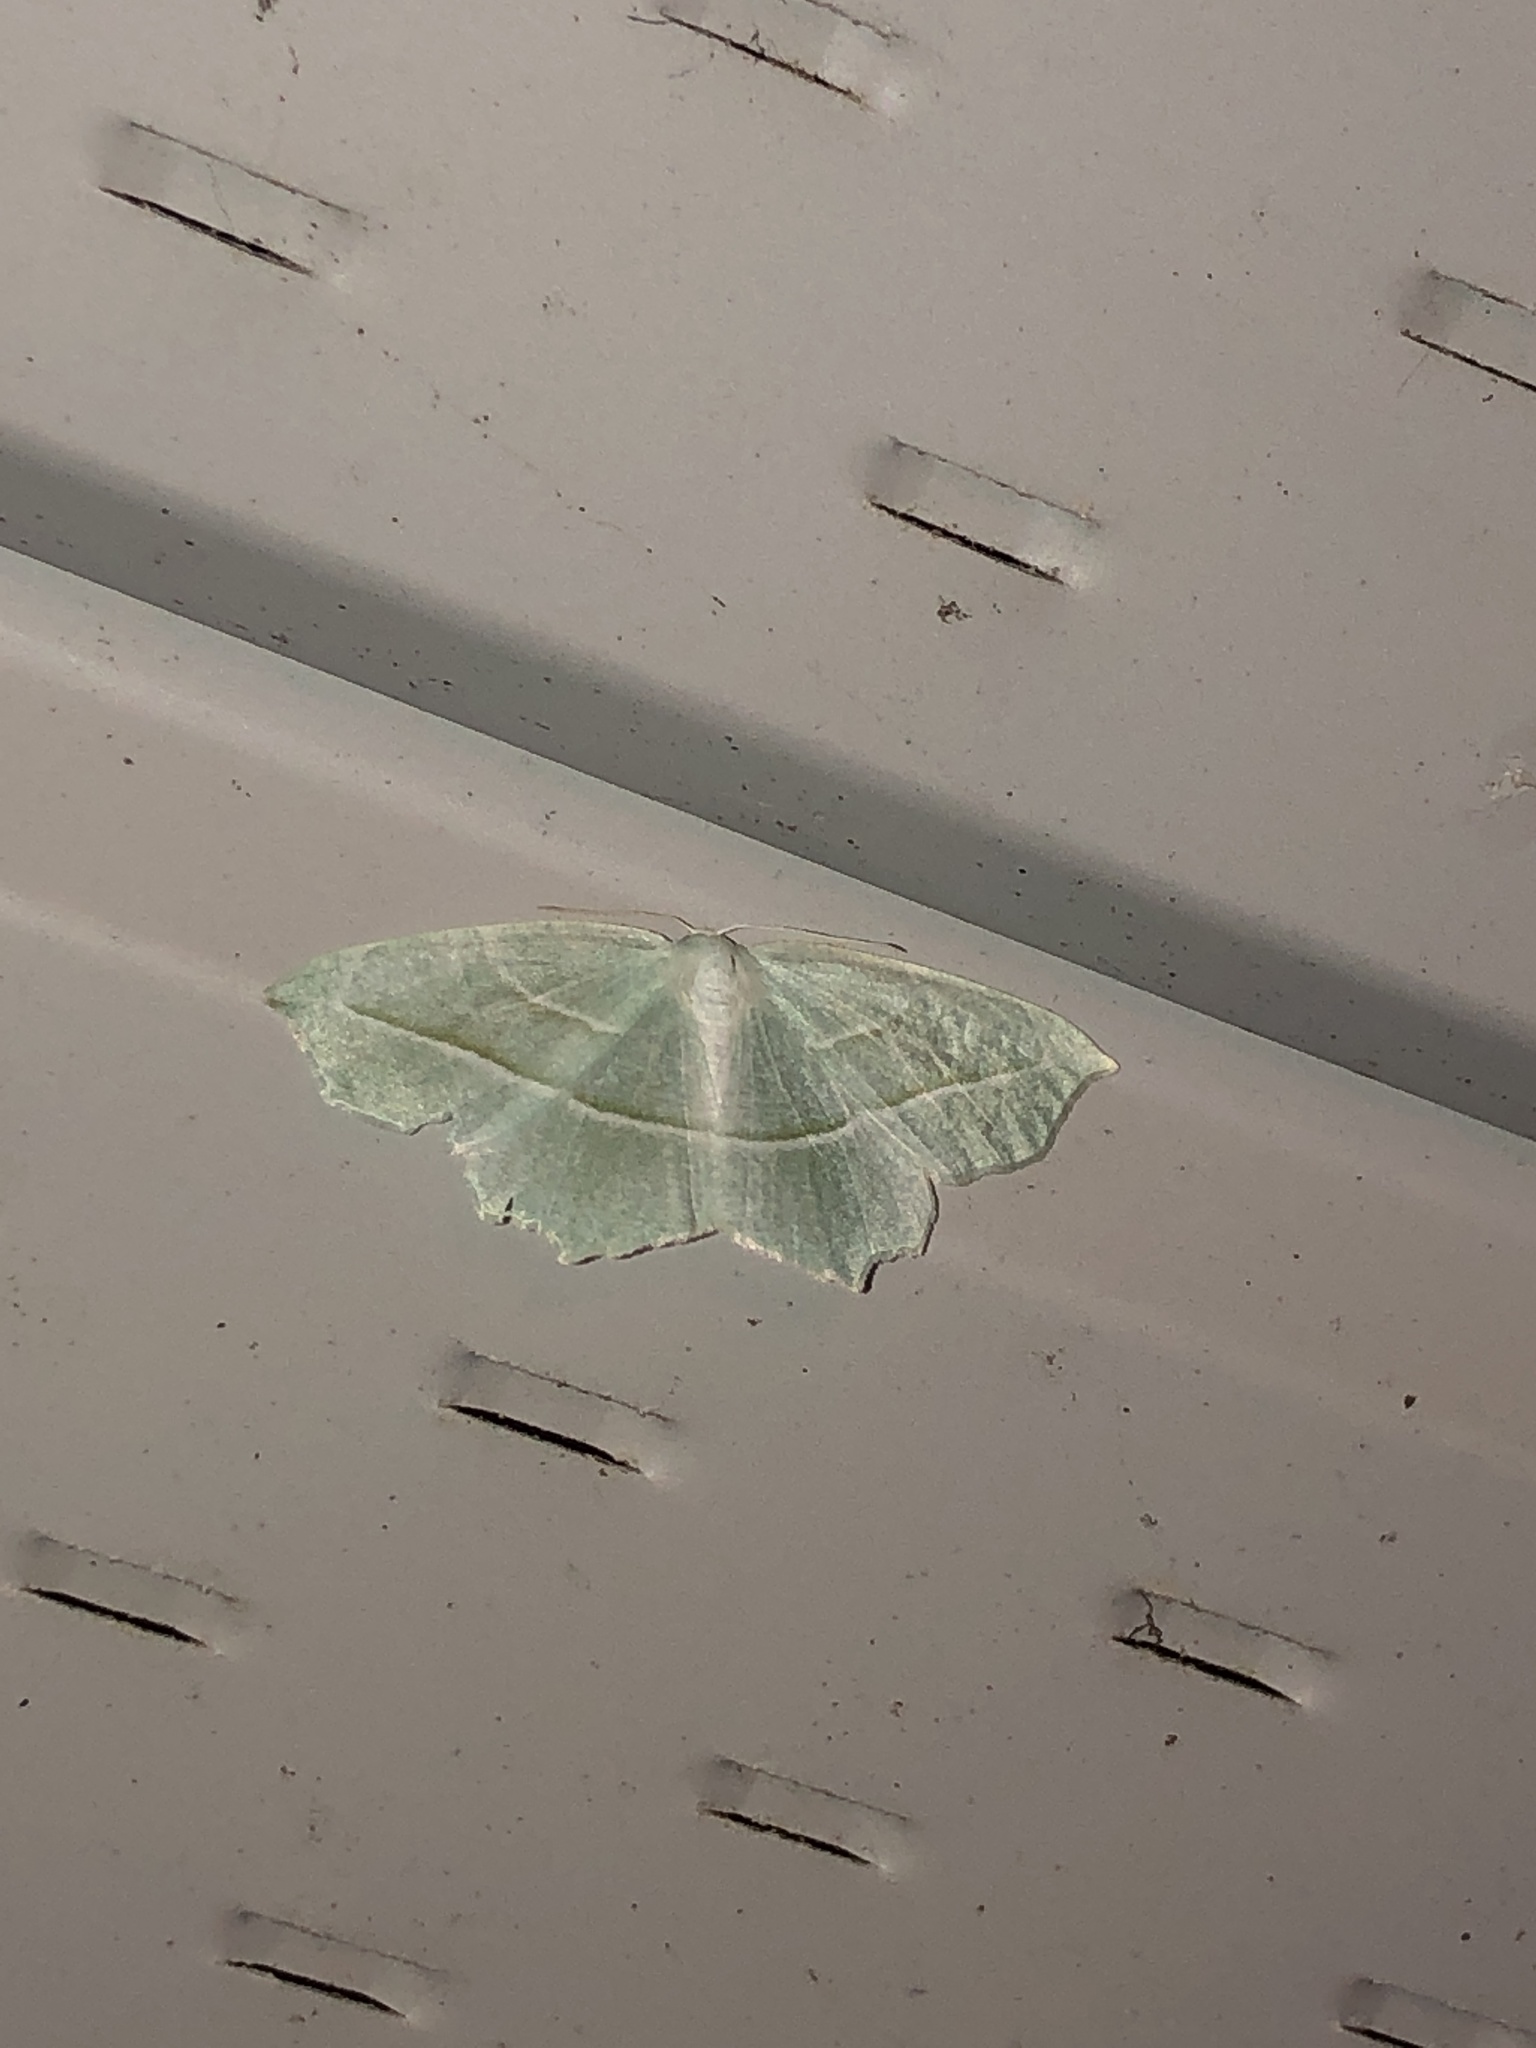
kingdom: Animalia
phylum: Arthropoda
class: Insecta
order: Lepidoptera
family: Geometridae
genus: Campaea
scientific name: Campaea perlata
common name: Fringed looper
